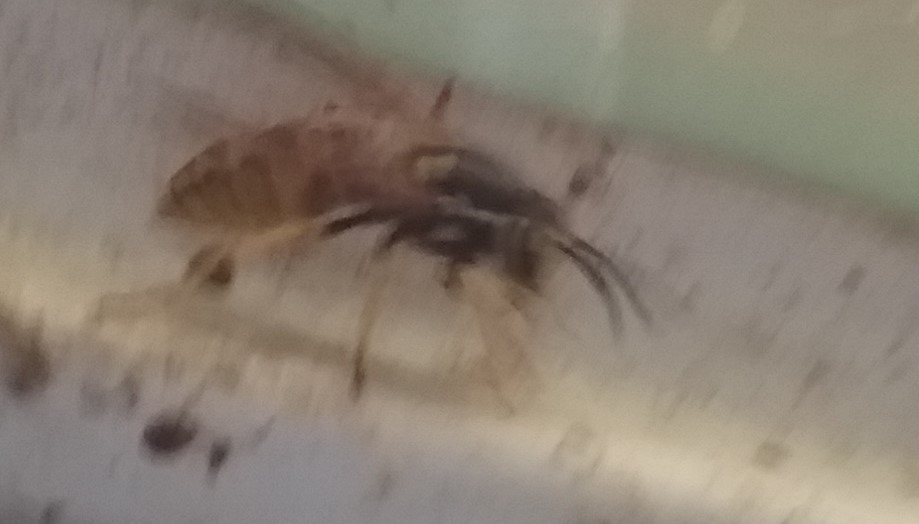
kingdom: Animalia
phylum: Arthropoda
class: Insecta
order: Hymenoptera
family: Vespidae
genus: Vespula
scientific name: Vespula
